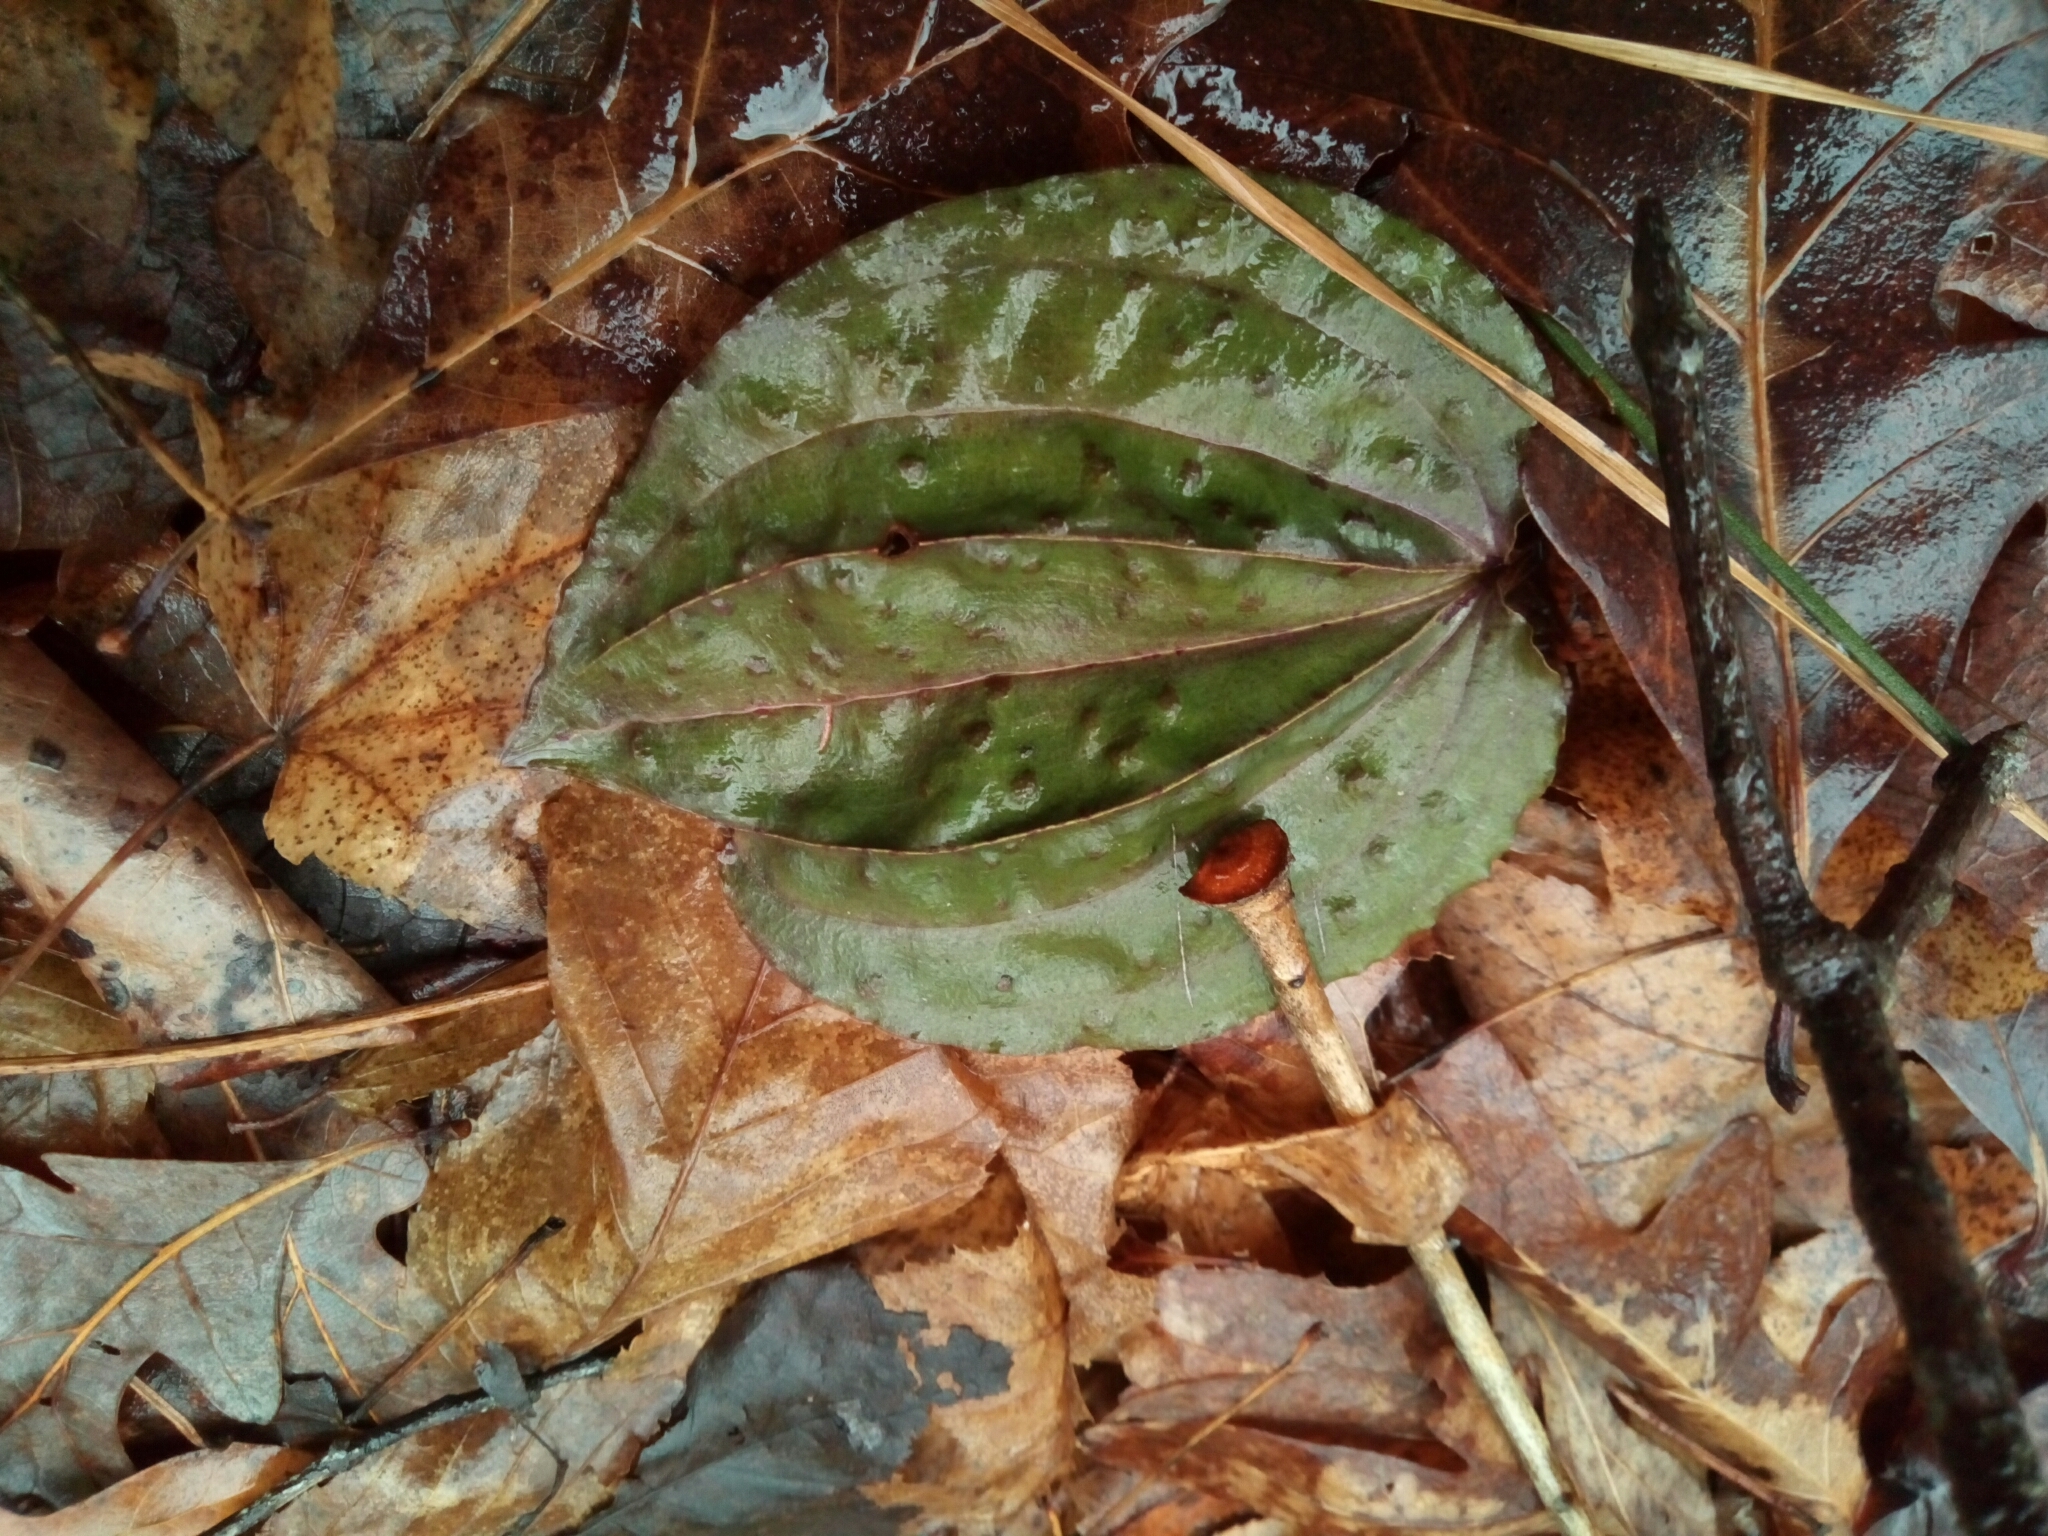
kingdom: Plantae
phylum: Tracheophyta
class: Liliopsida
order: Asparagales
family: Orchidaceae
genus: Tipularia
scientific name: Tipularia discolor
